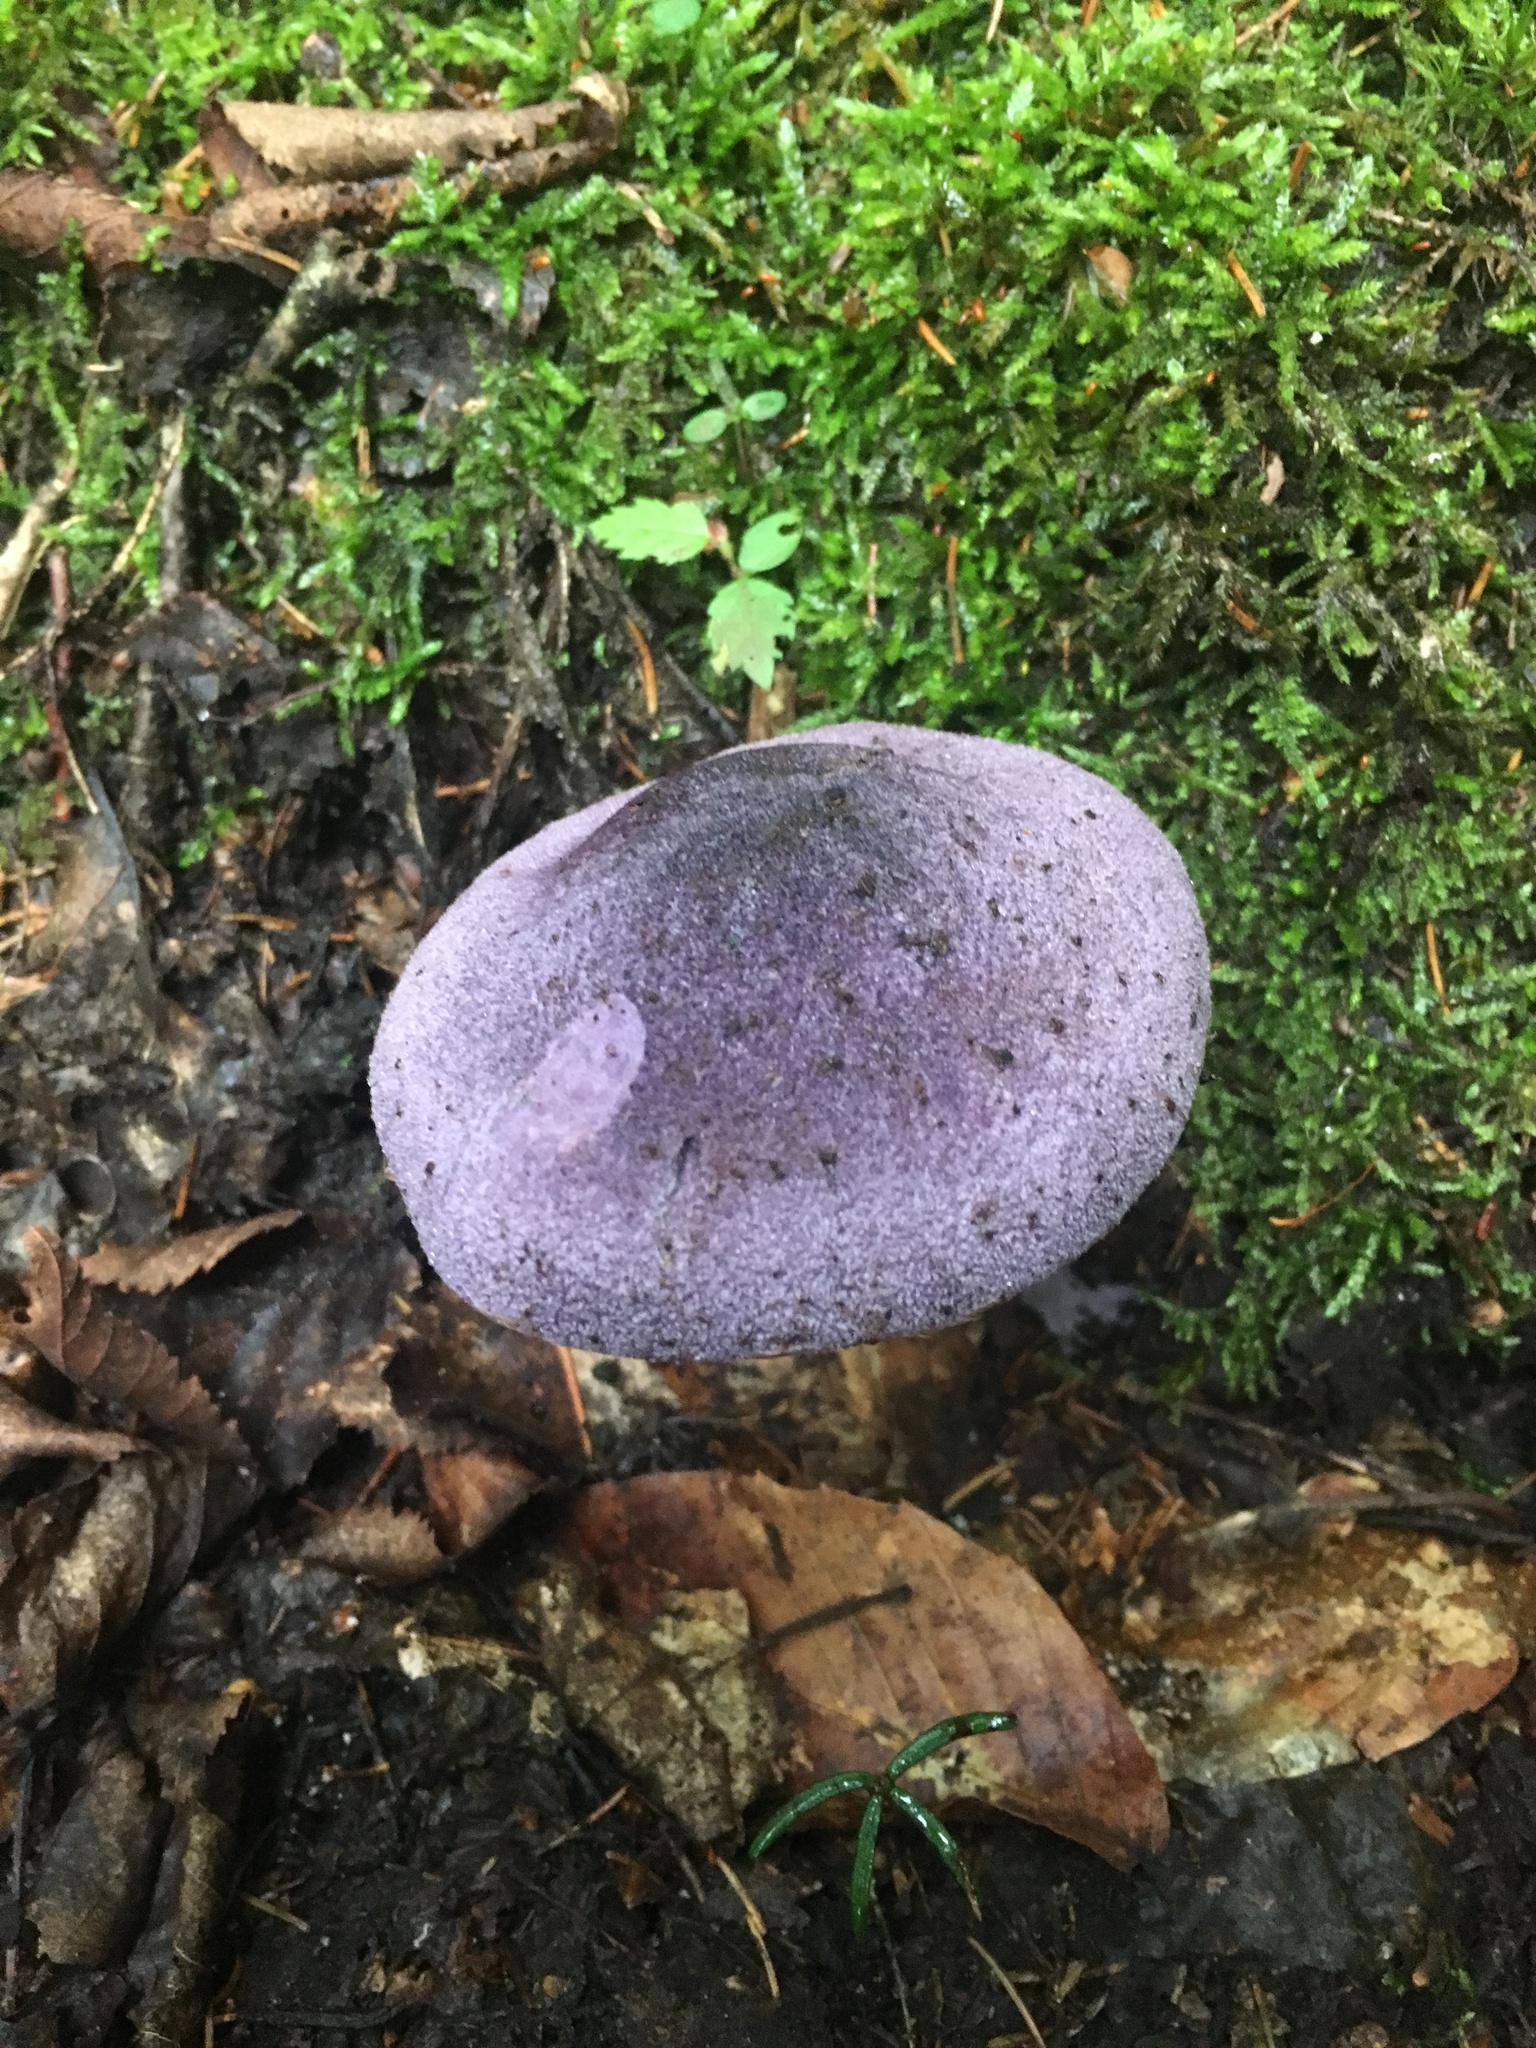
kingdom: Fungi
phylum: Basidiomycota
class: Agaricomycetes
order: Agaricales
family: Cortinariaceae
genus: Cortinarius
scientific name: Cortinarius violaceus
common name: Violet webcap
